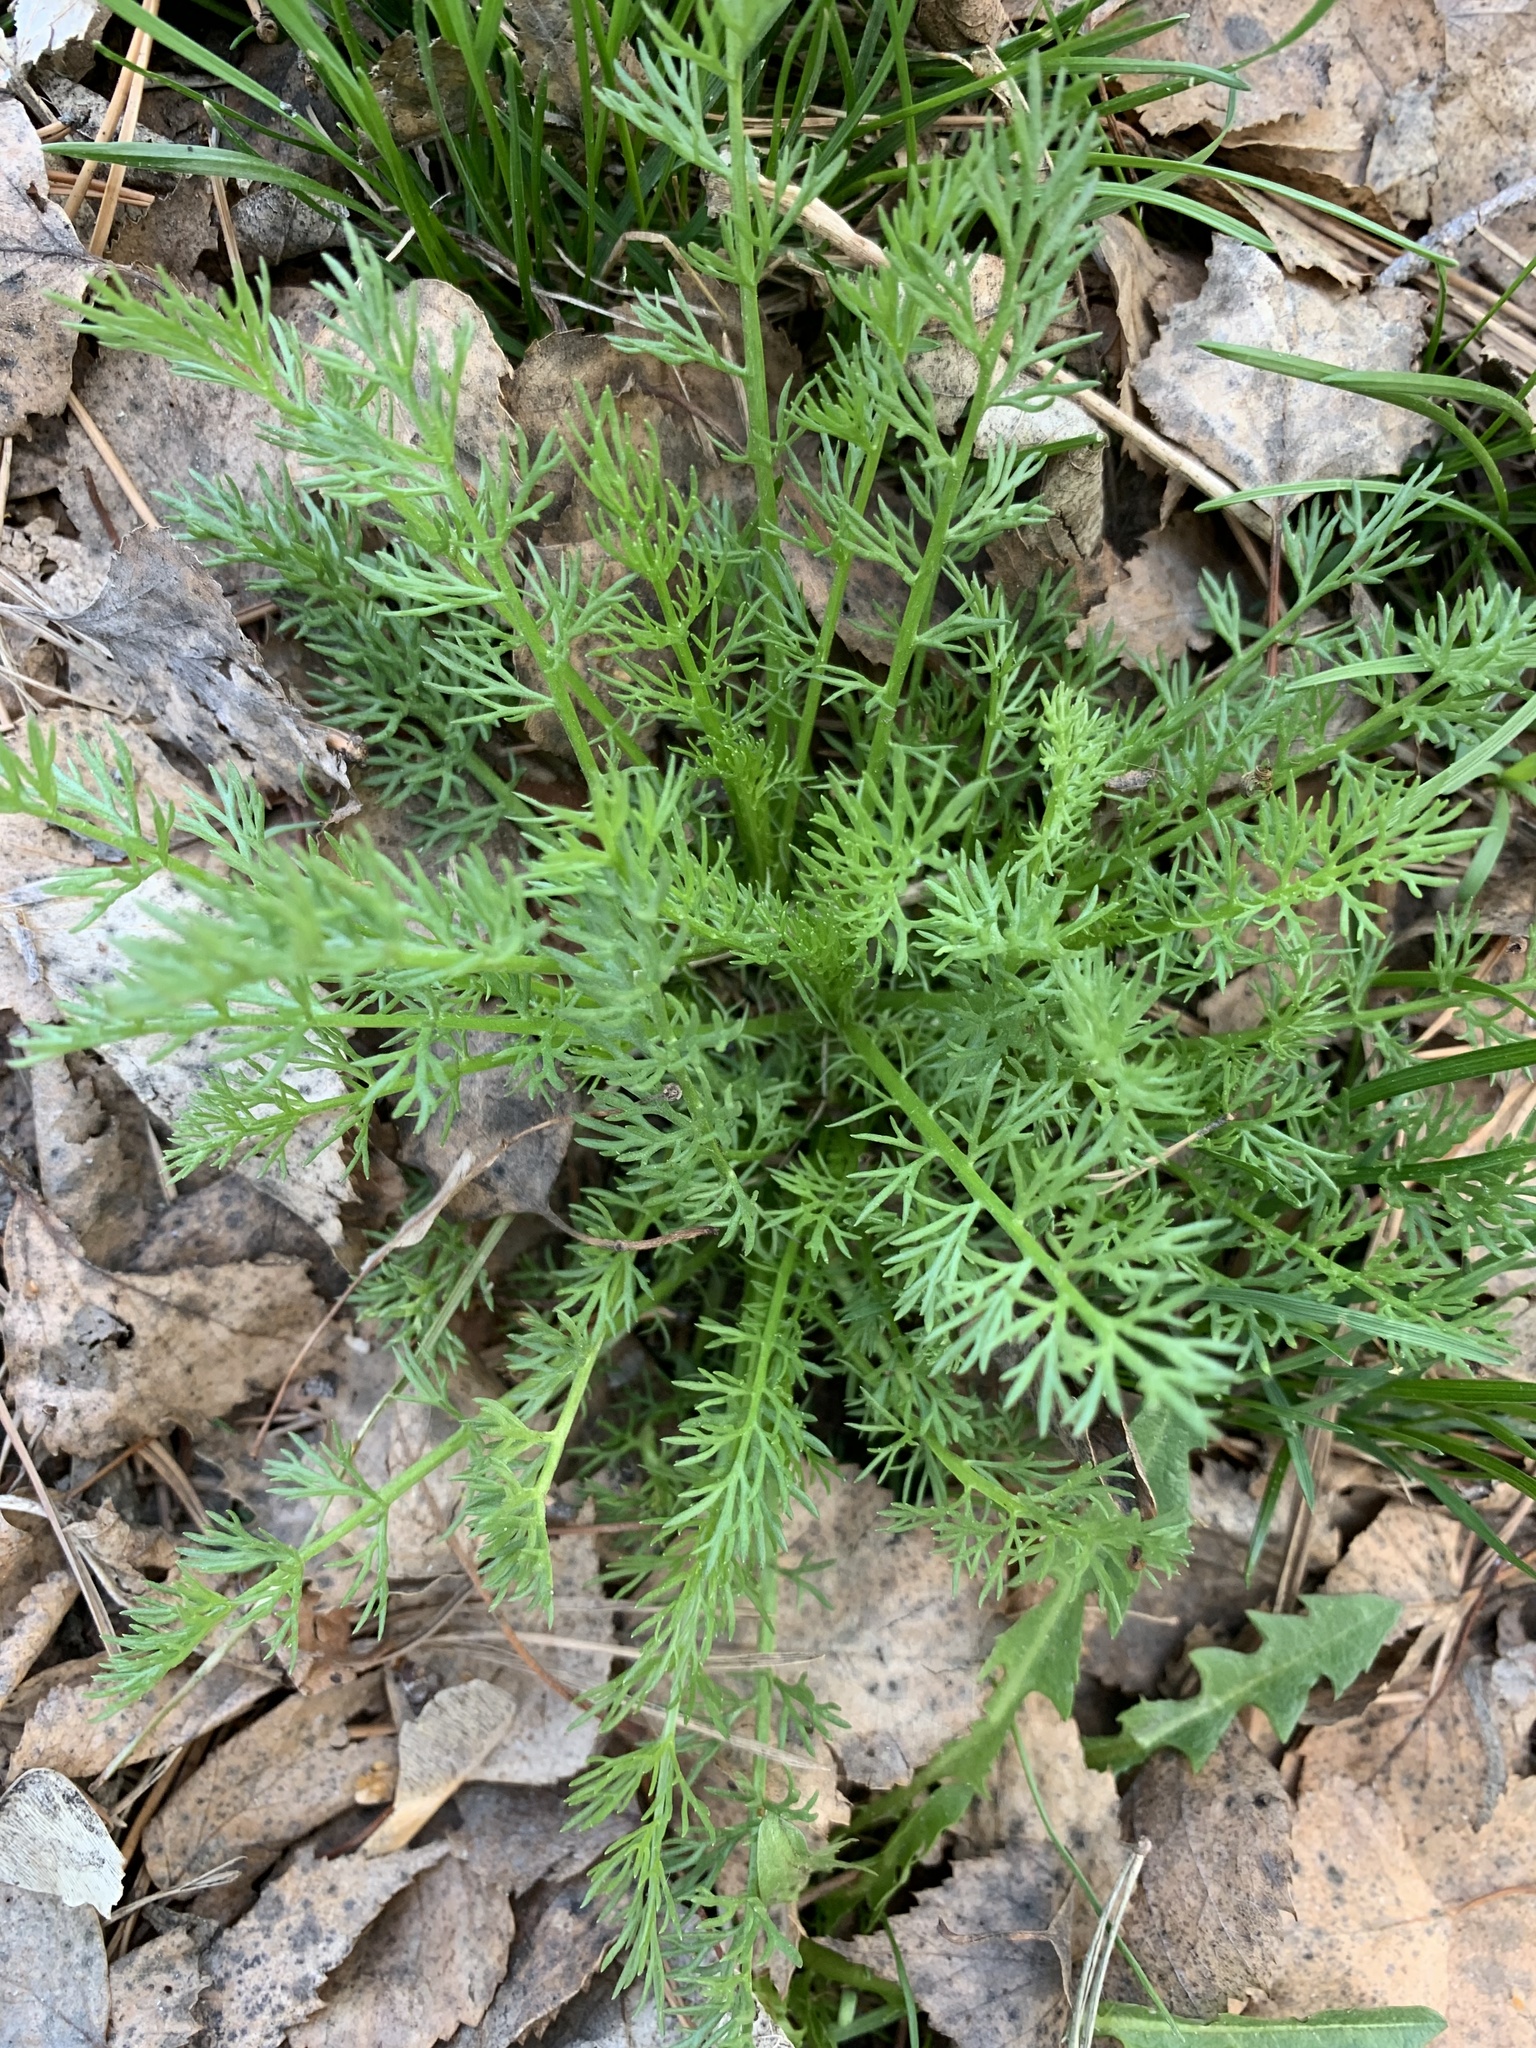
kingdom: Plantae
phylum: Tracheophyta
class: Magnoliopsida
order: Asterales
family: Asteraceae
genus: Tripleurospermum
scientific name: Tripleurospermum inodorum
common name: Scentless mayweed
